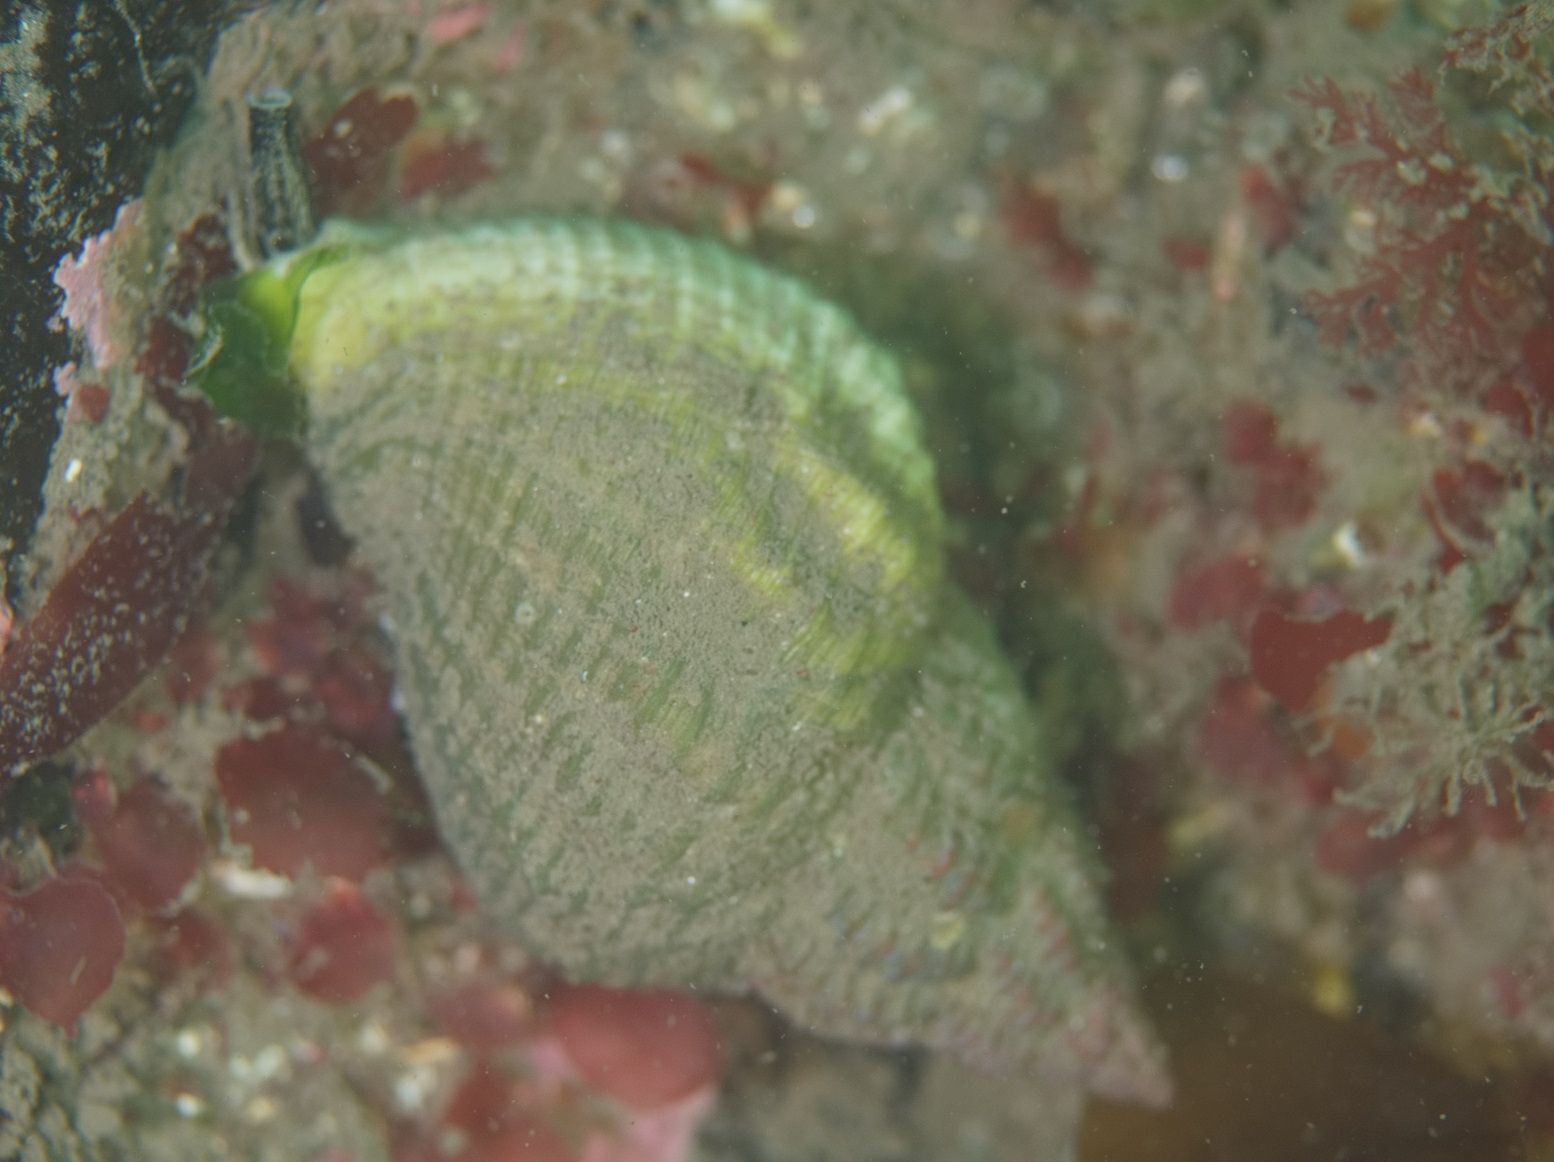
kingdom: Animalia
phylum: Mollusca
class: Gastropoda
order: Neogastropoda
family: Buccinidae
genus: Buccinum
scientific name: Buccinum undatum
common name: Common whelk
